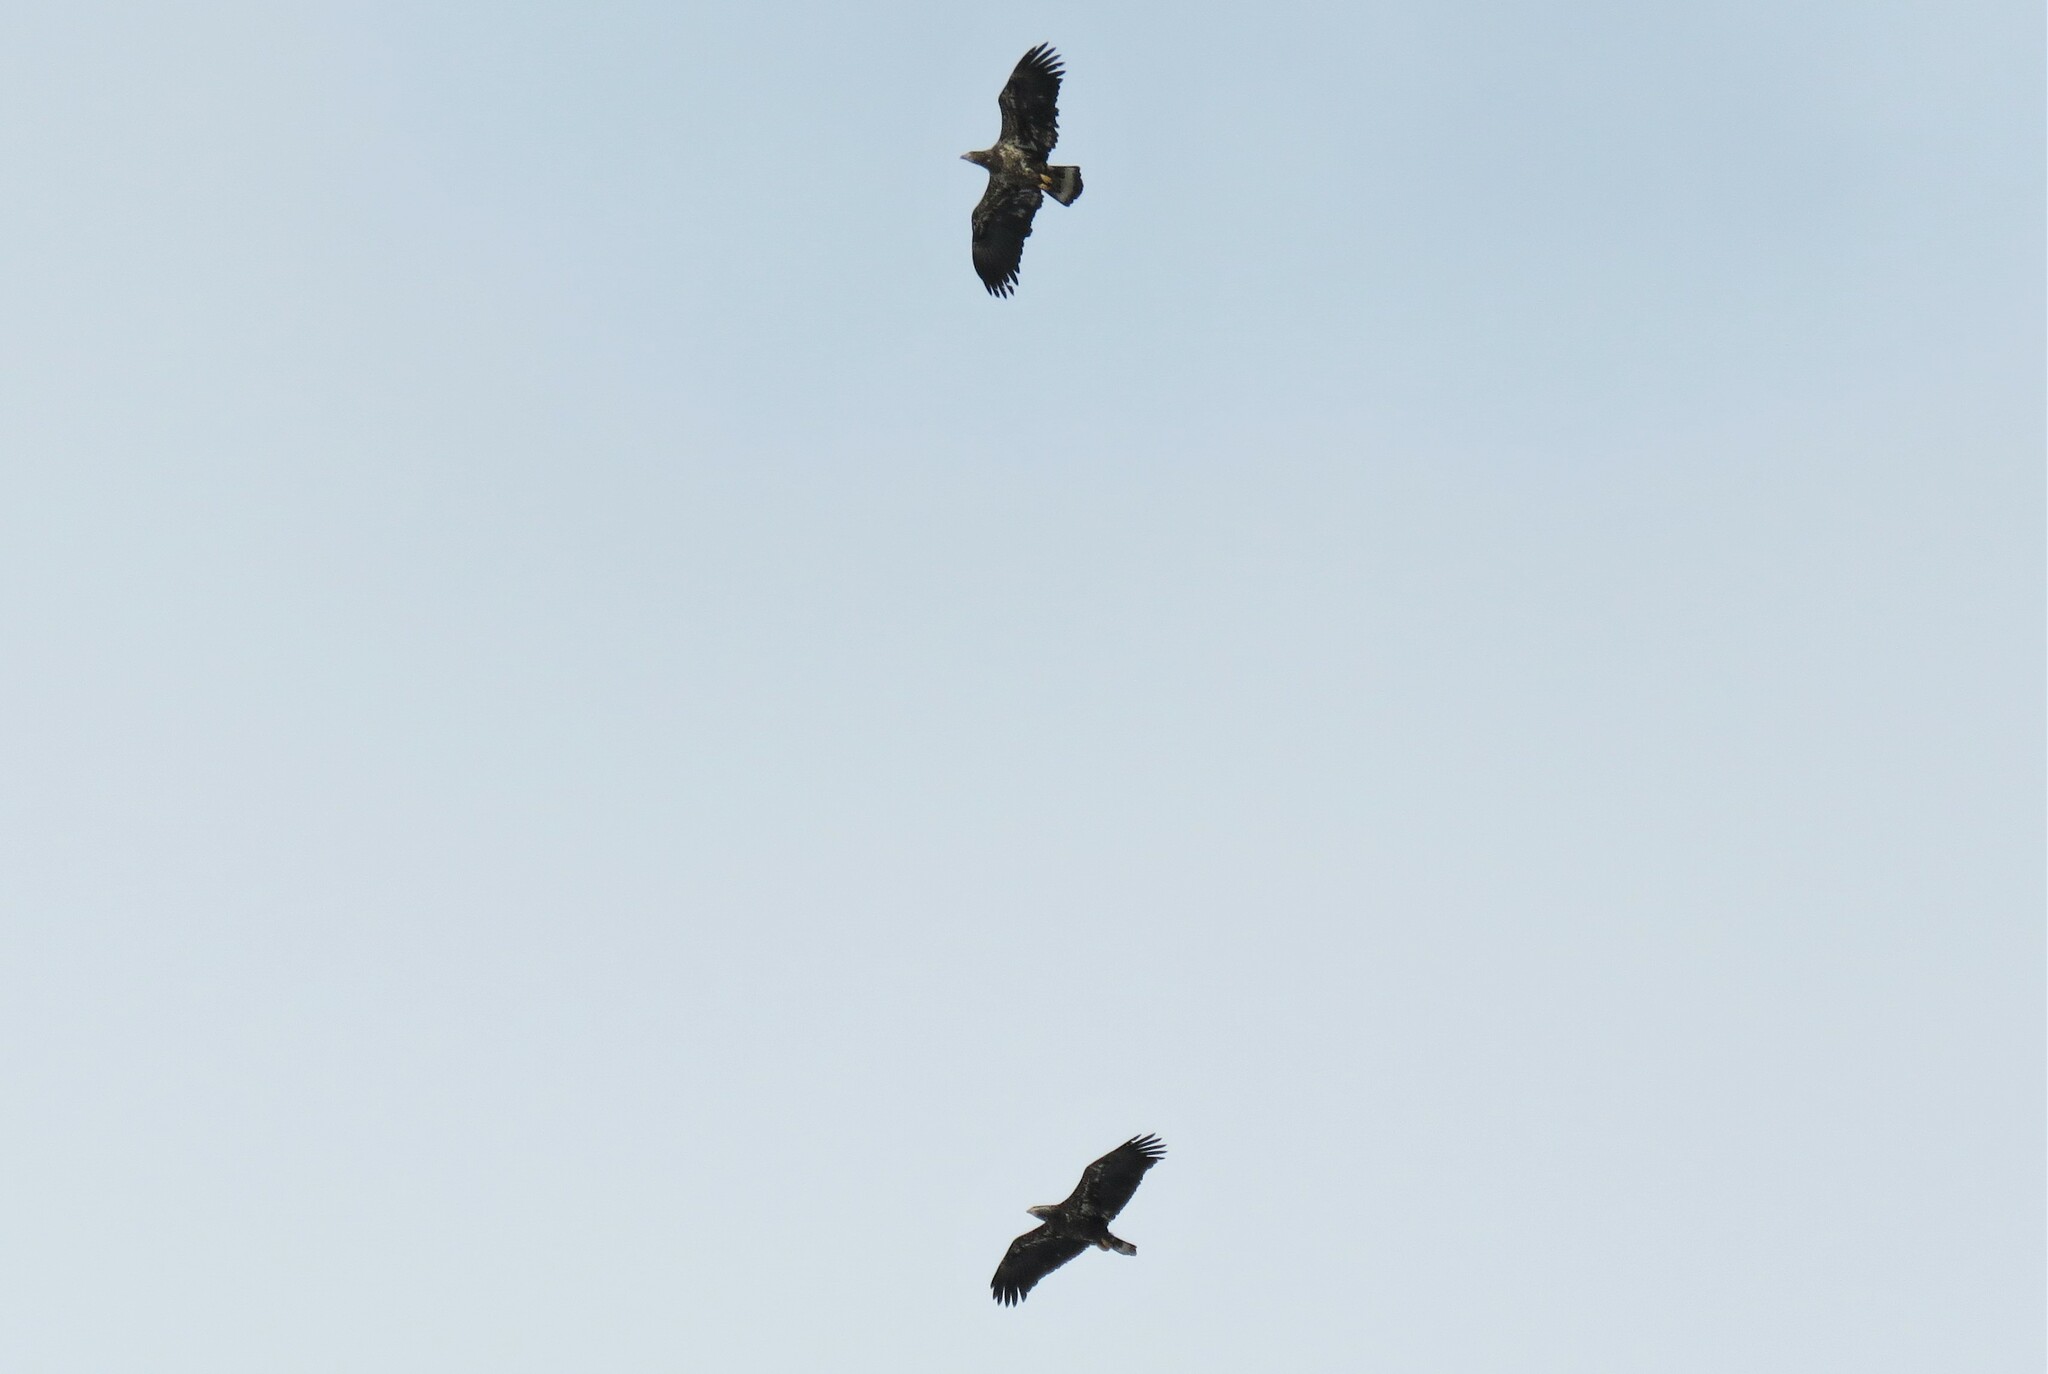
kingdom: Animalia
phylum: Chordata
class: Aves
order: Accipitriformes
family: Accipitridae
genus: Haliaeetus
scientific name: Haliaeetus leucocephalus
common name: Bald eagle
